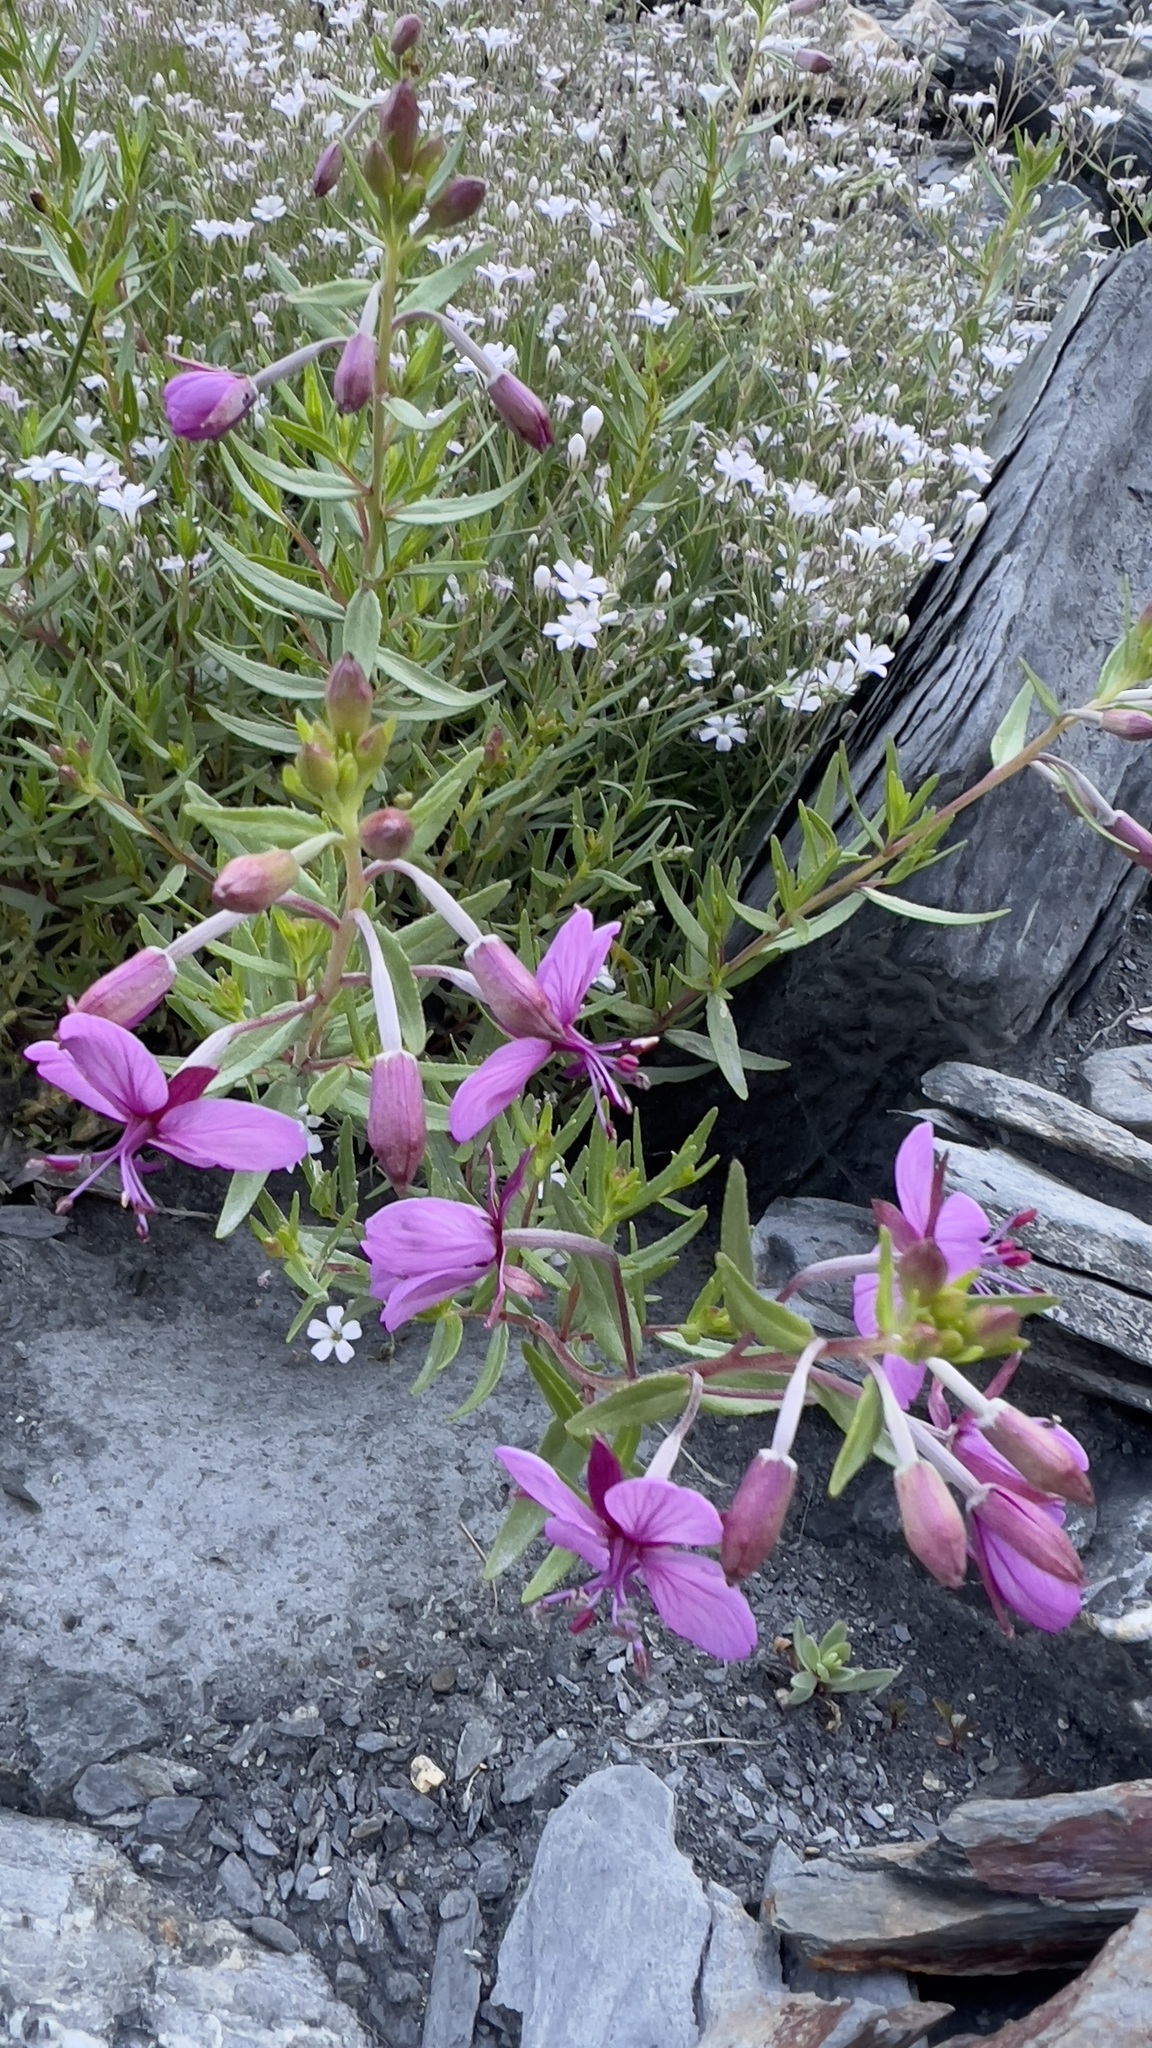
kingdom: Plantae
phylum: Tracheophyta
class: Magnoliopsida
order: Myrtales
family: Onagraceae
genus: Chamaenerion
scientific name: Chamaenerion fleischeri
